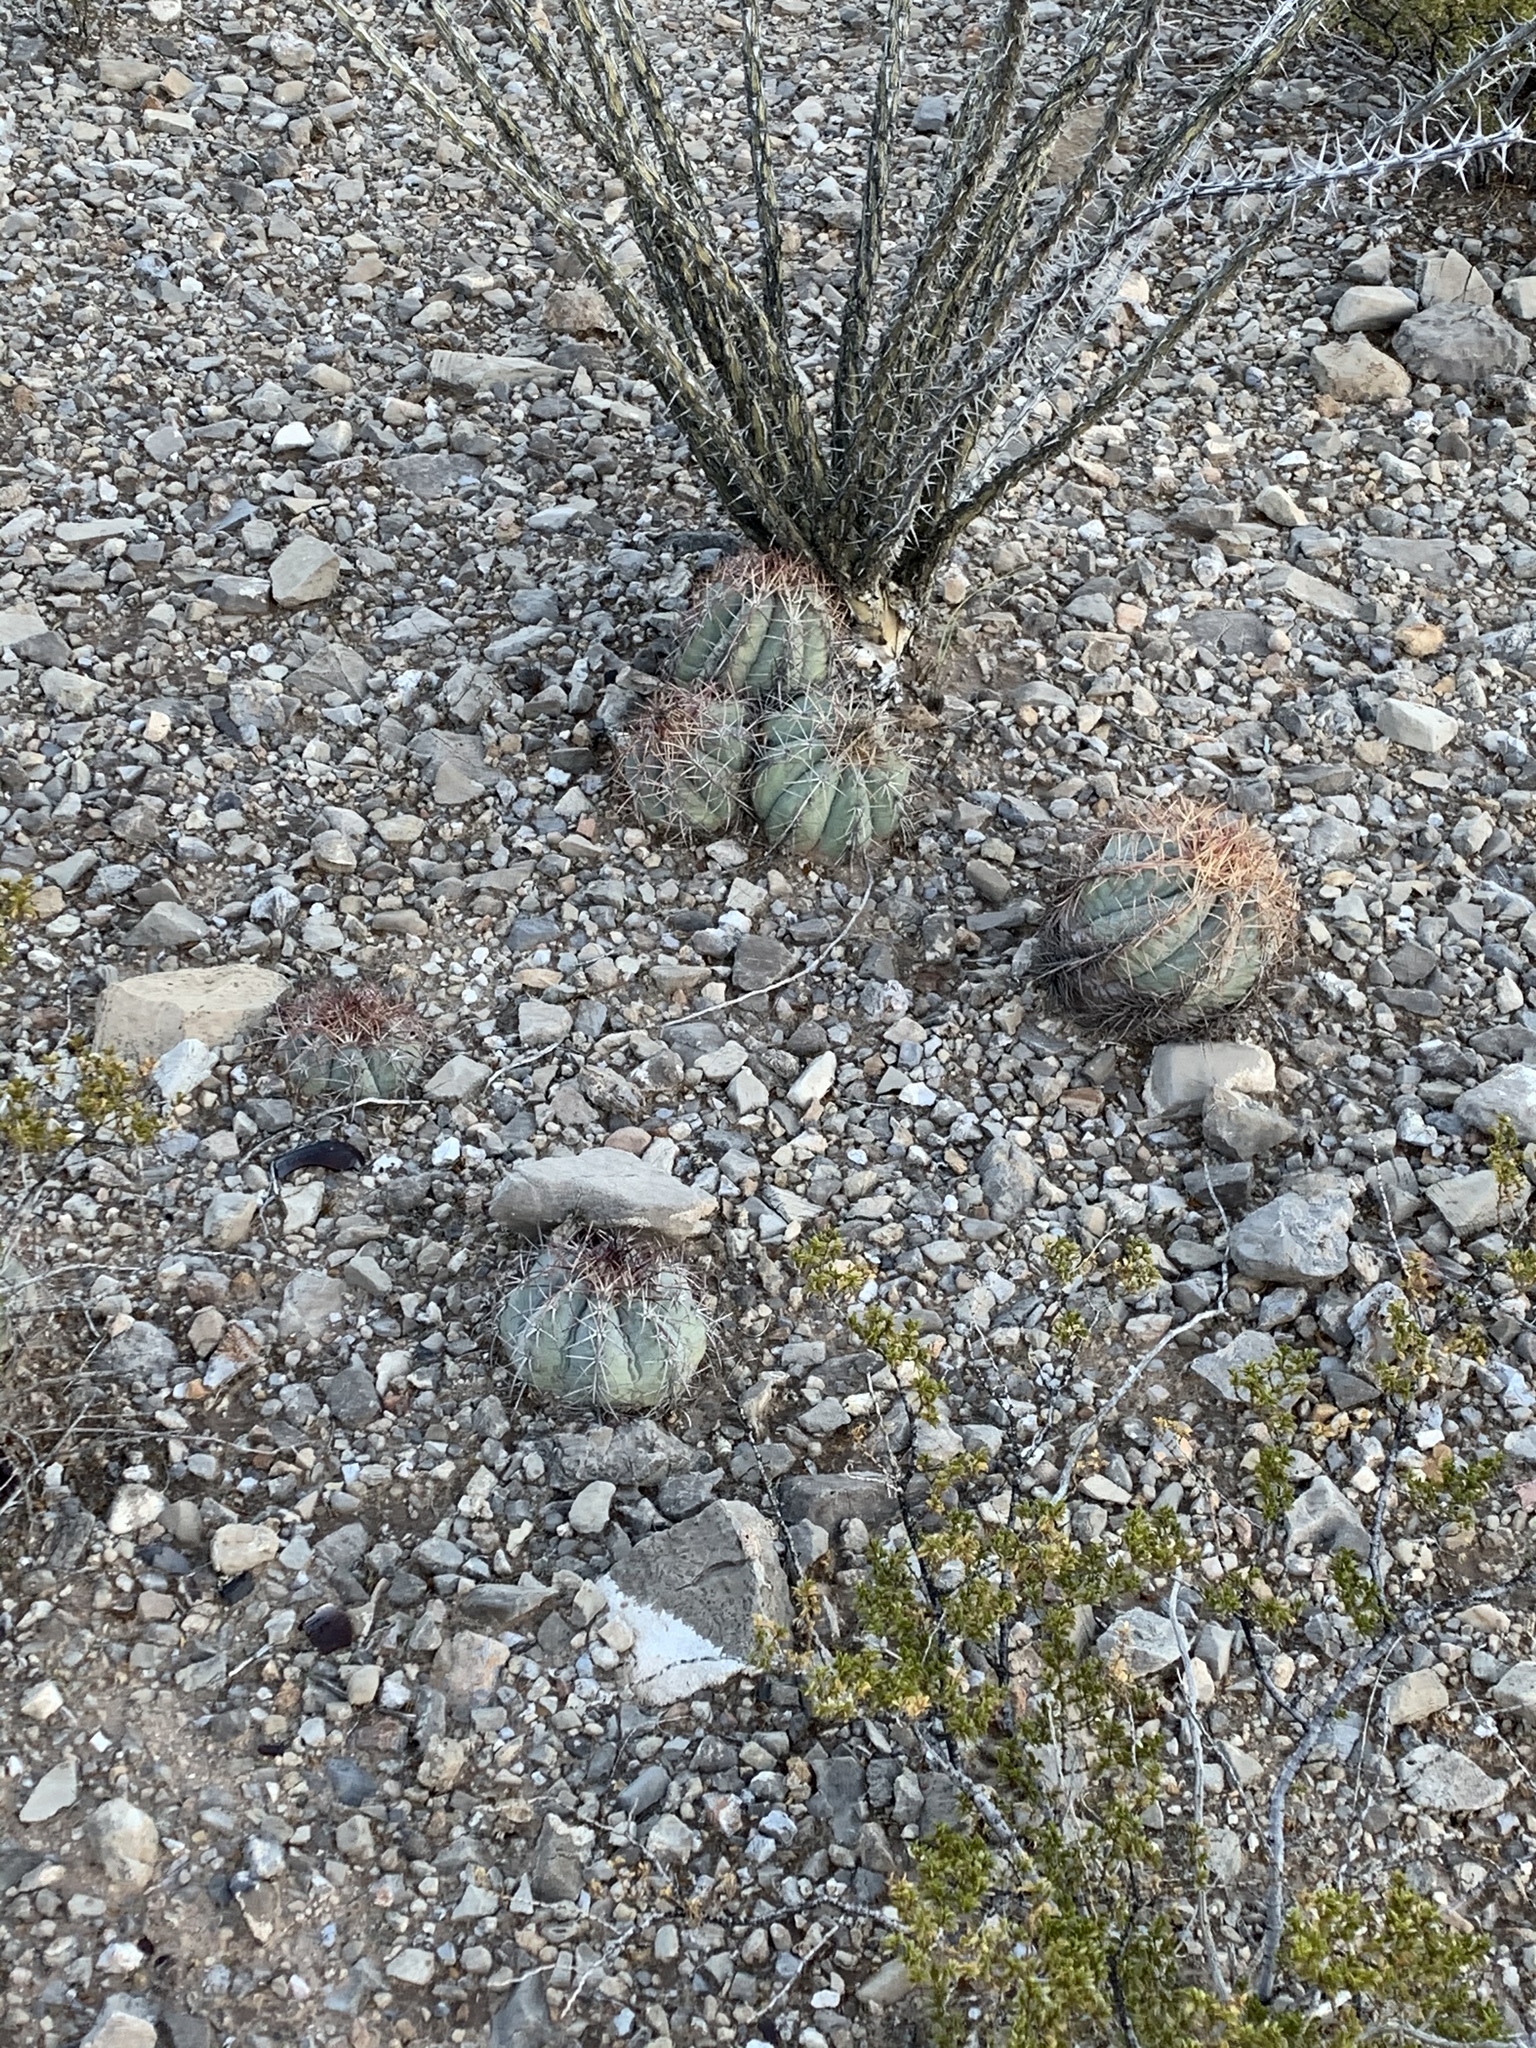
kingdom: Plantae
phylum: Tracheophyta
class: Magnoliopsida
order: Caryophyllales
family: Cactaceae
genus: Echinocactus
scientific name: Echinocactus horizonthalonius
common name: Devilshead
